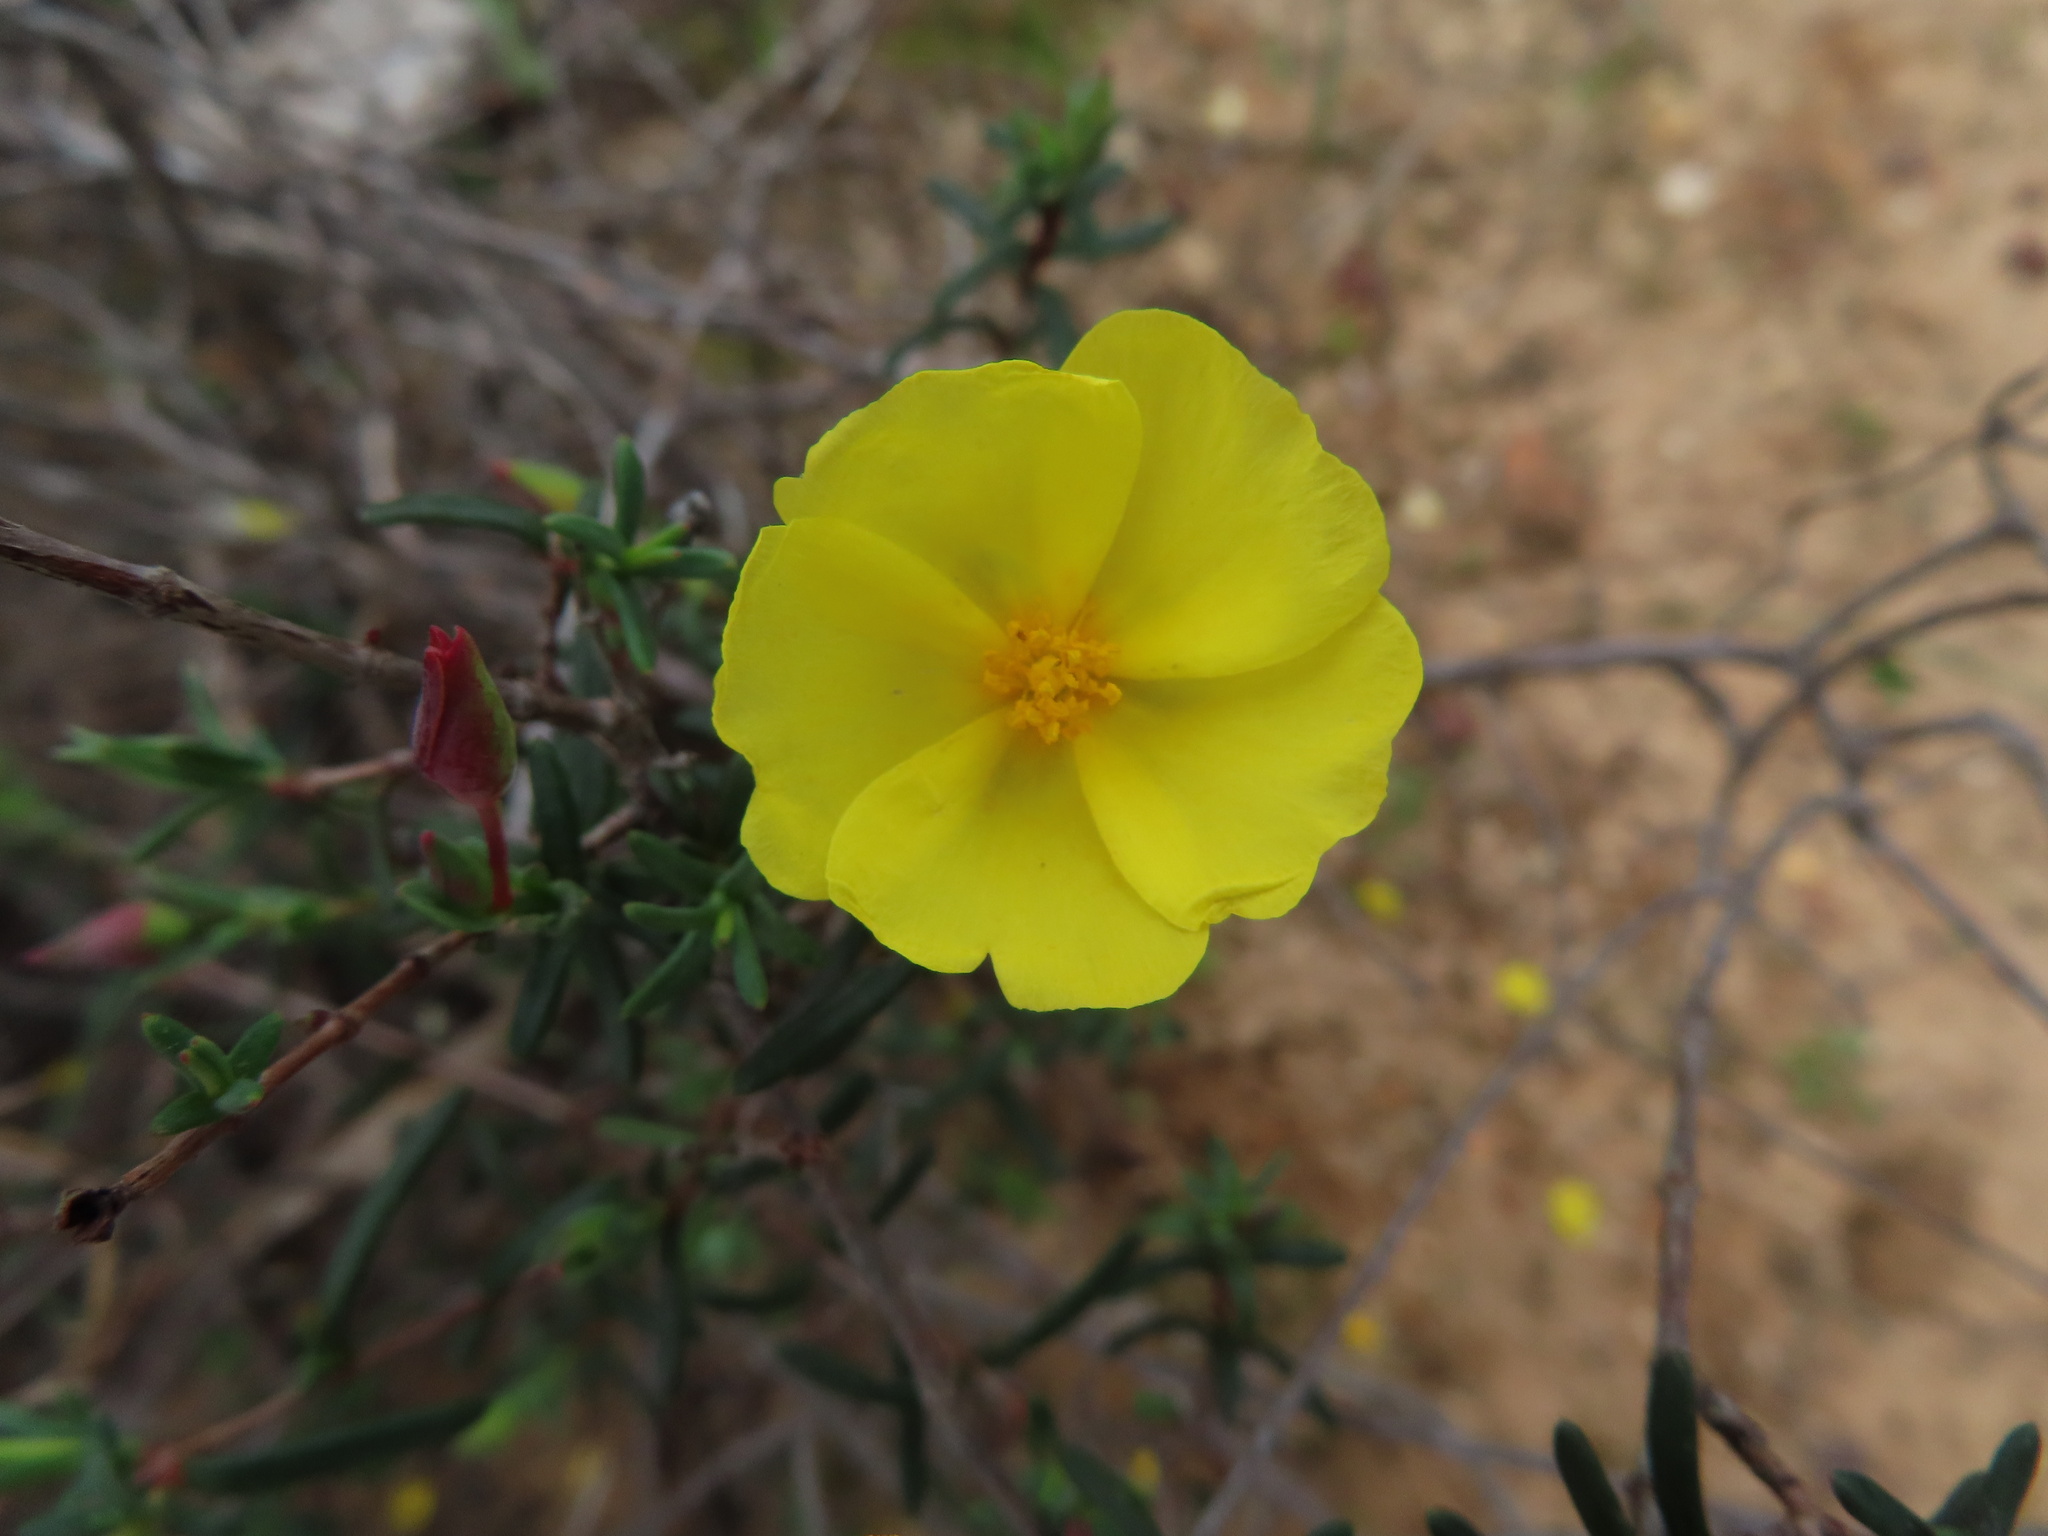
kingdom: Plantae
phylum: Tracheophyta
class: Magnoliopsida
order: Malvales
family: Cistaceae
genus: Halimium
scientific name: Halimium calycinum
